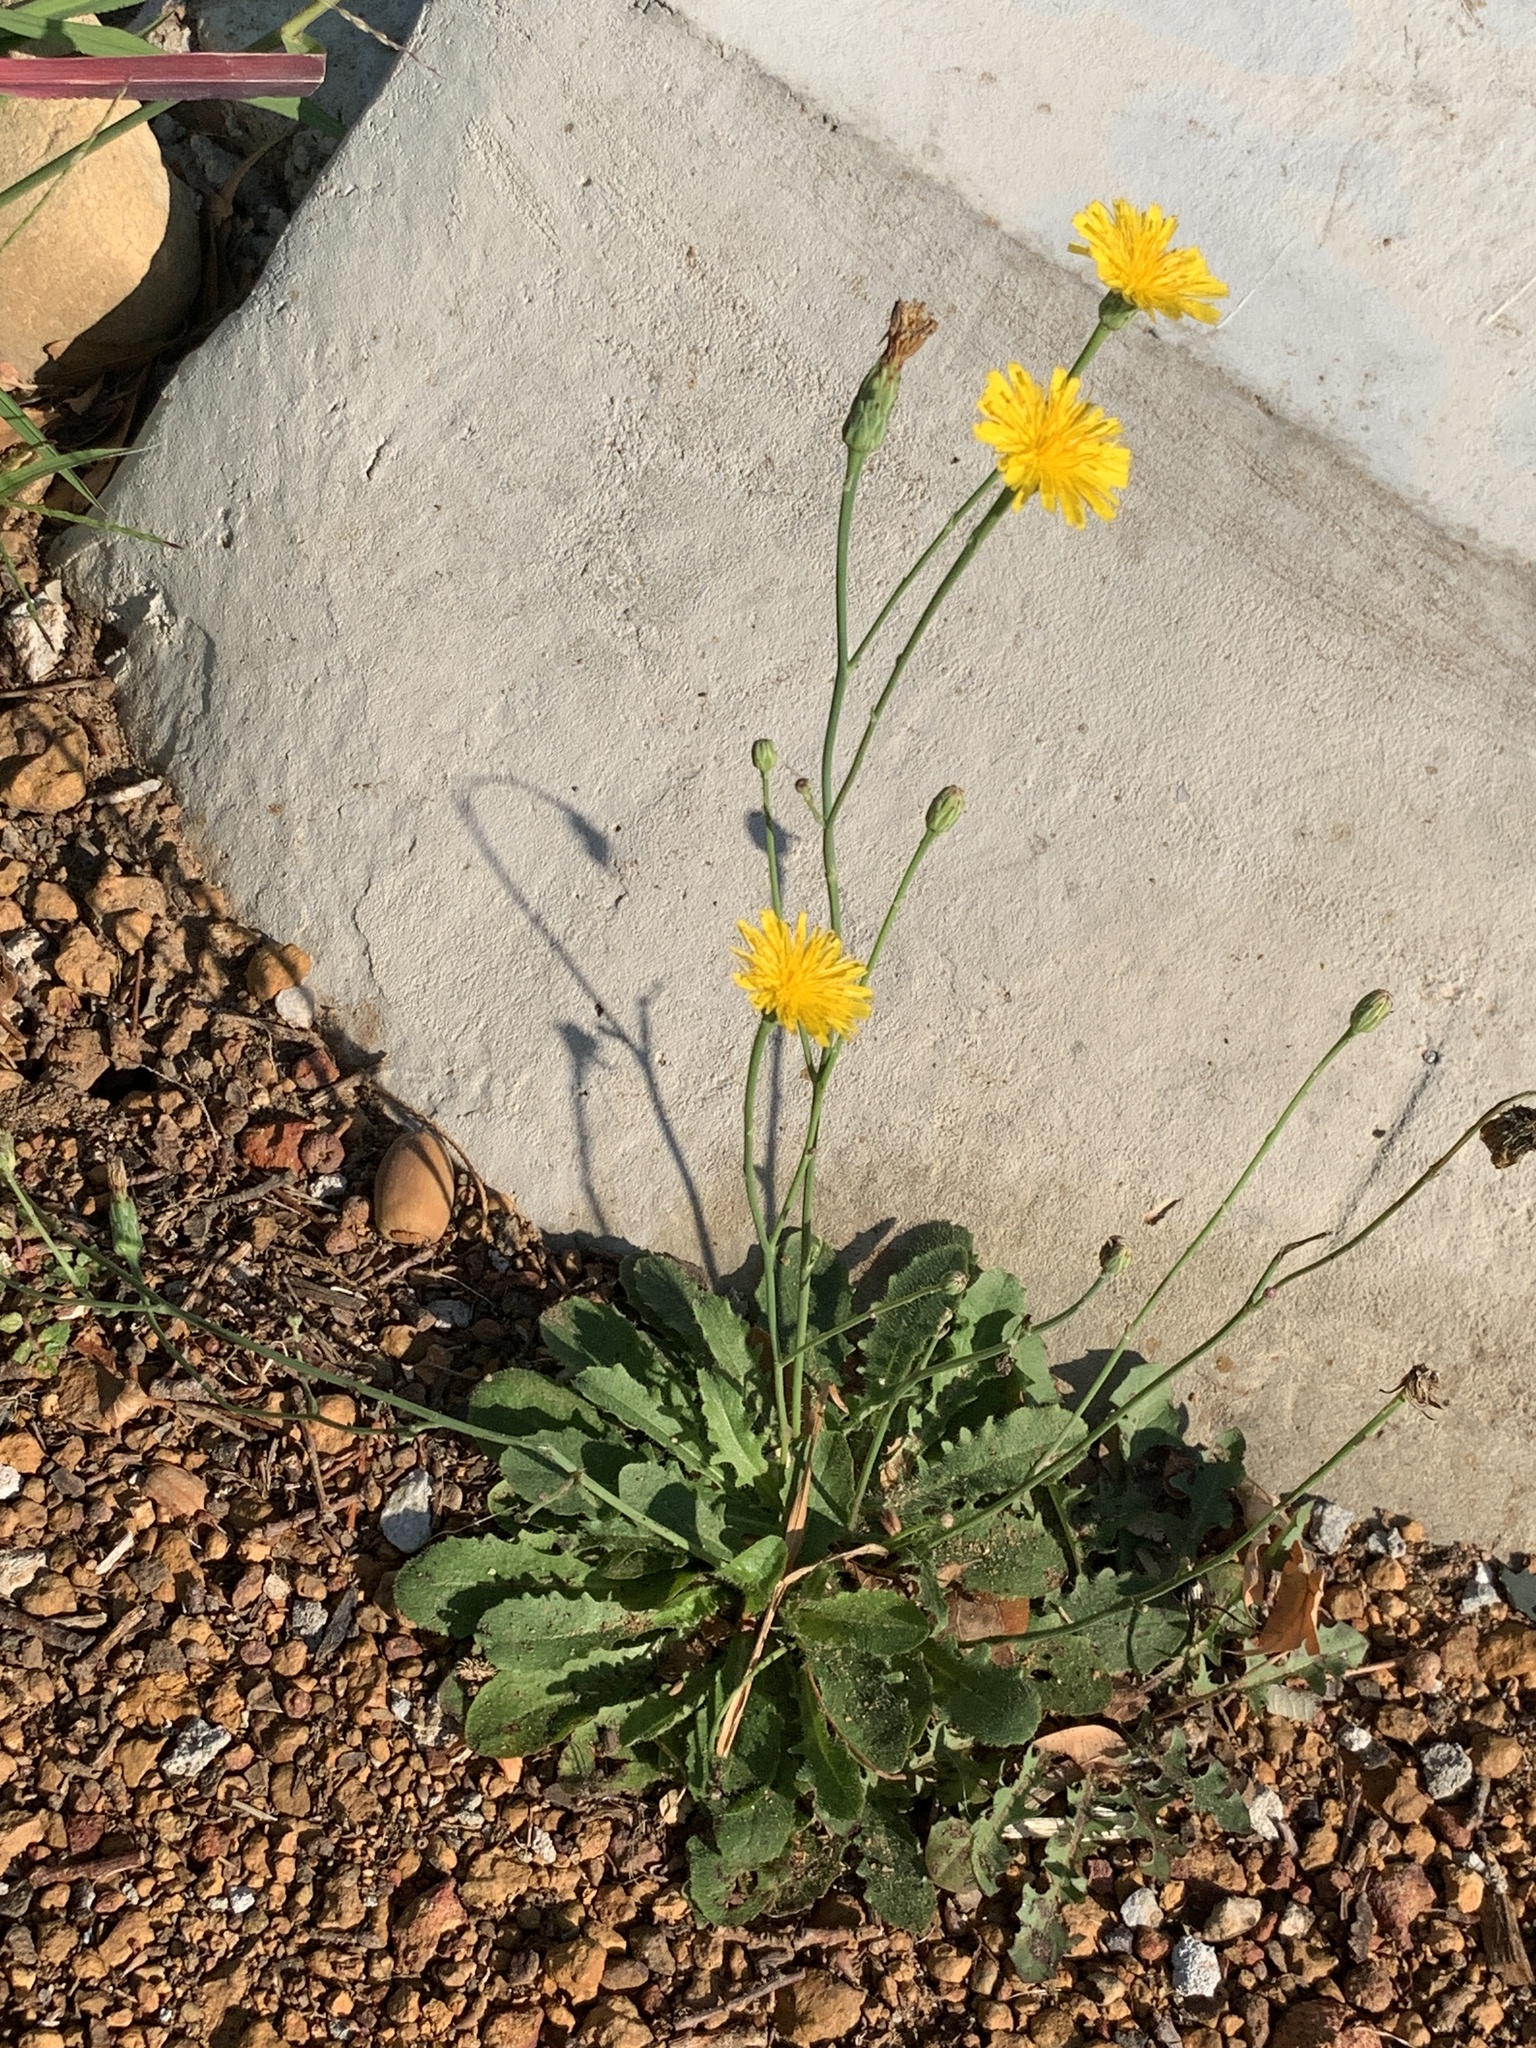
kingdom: Plantae
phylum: Tracheophyta
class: Magnoliopsida
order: Asterales
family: Asteraceae
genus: Hypochaeris
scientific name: Hypochaeris radicata
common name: Flatweed
